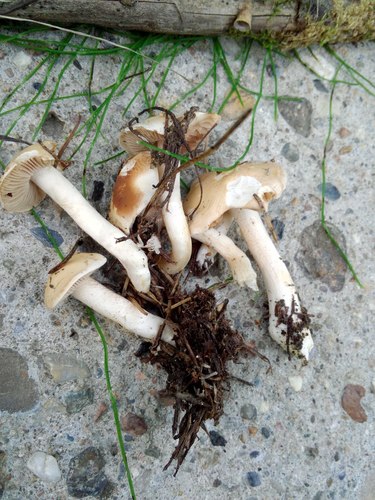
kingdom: Fungi
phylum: Basidiomycota
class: Agaricomycetes
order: Agaricales
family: Hymenogastraceae
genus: Hebeloma
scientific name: Hebeloma crustuliniforme
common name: Poison pie
